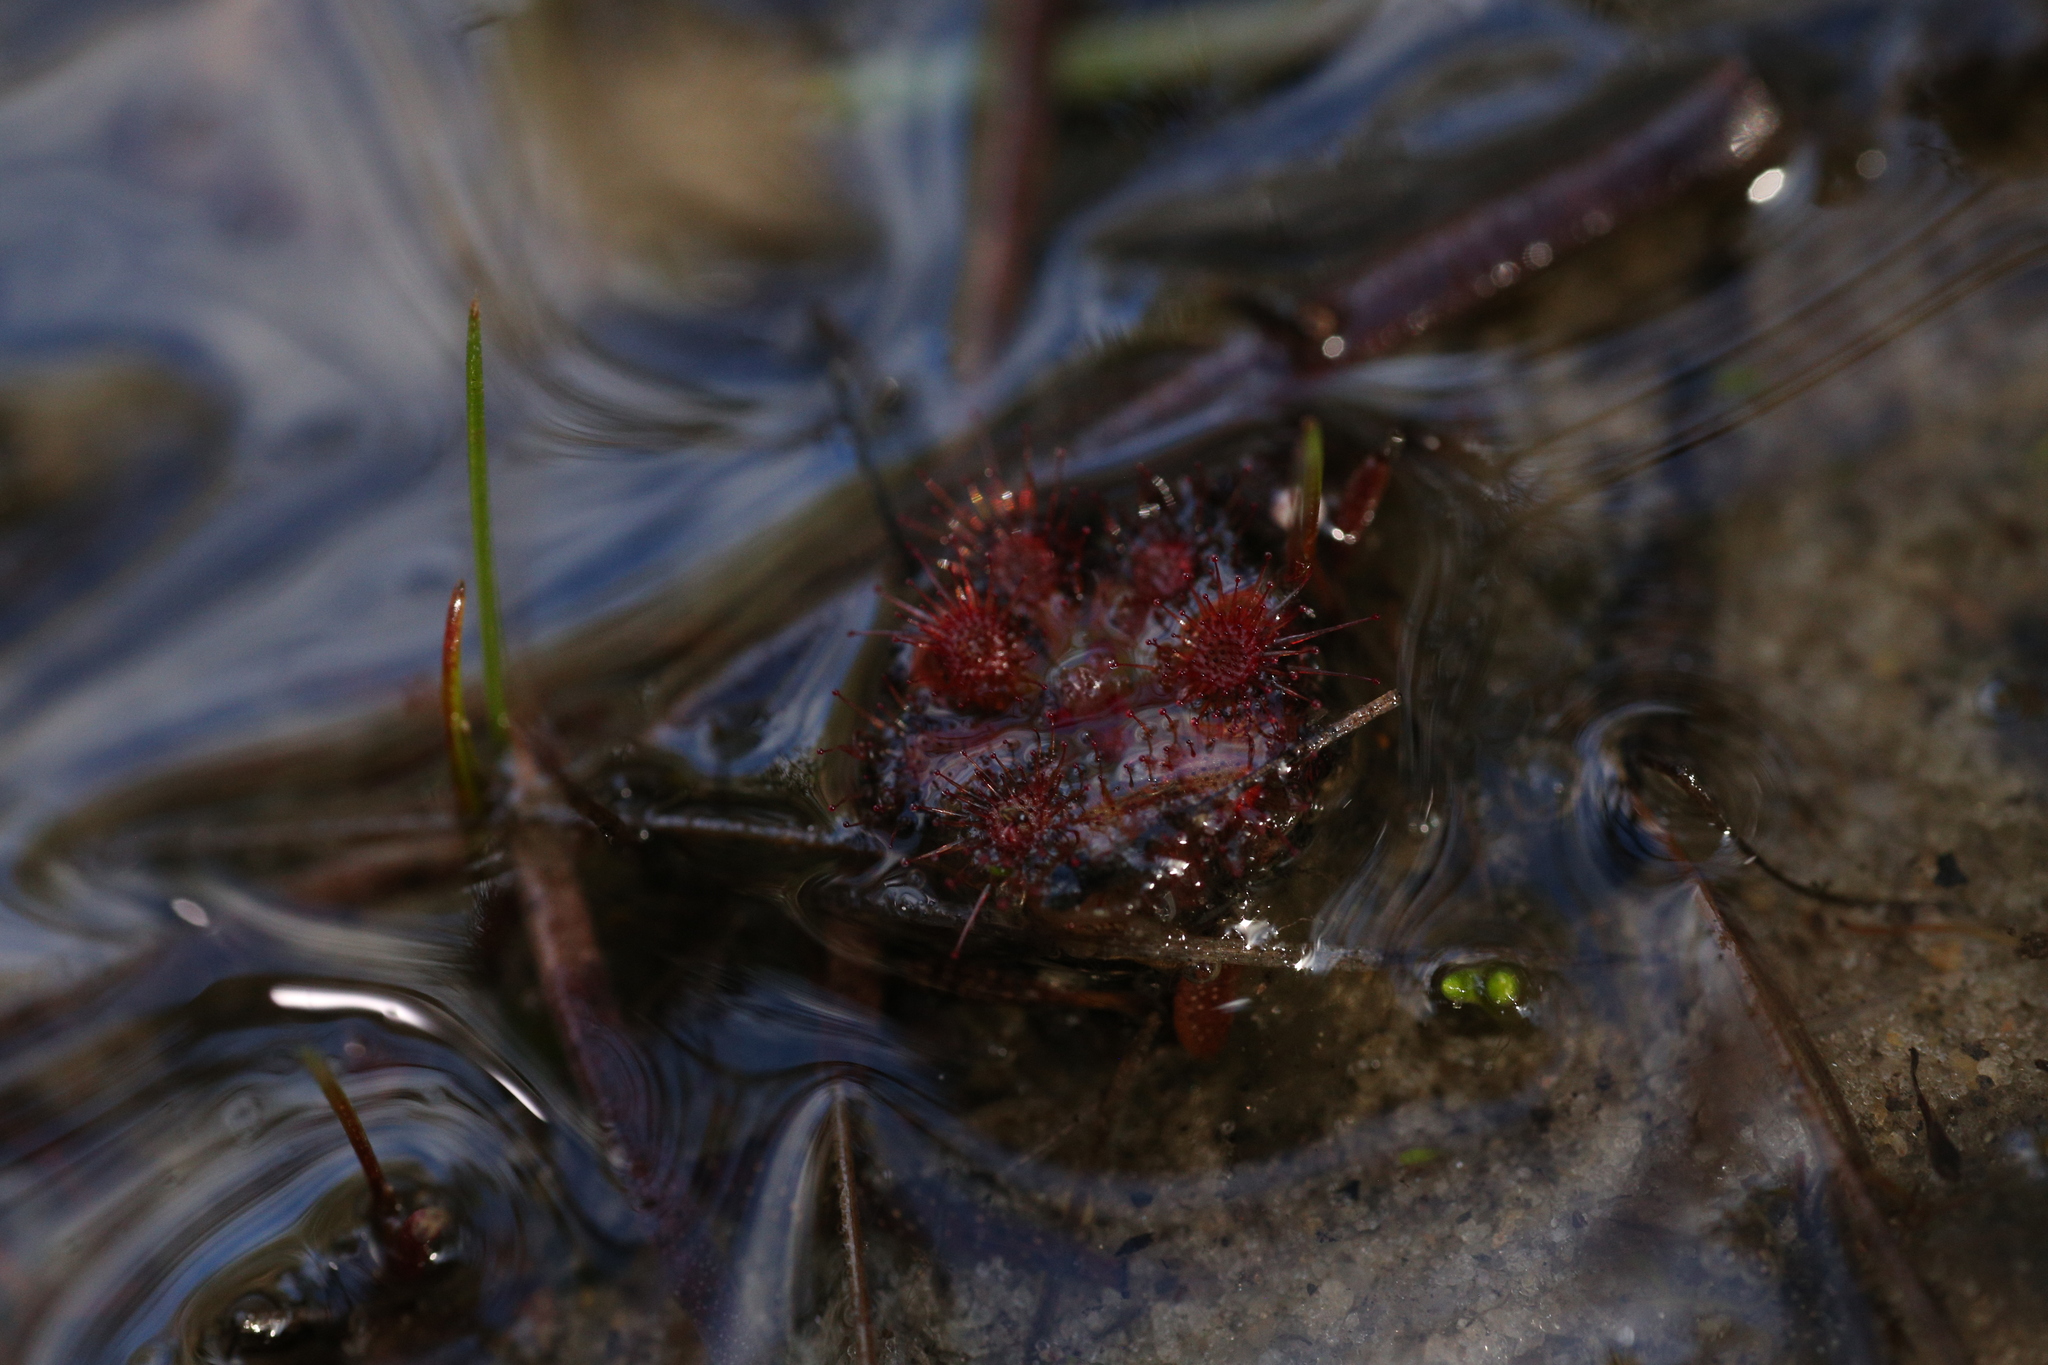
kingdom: Plantae
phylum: Tracheophyta
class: Magnoliopsida
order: Caryophyllales
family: Droseraceae
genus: Drosera
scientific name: Drosera nitidula
